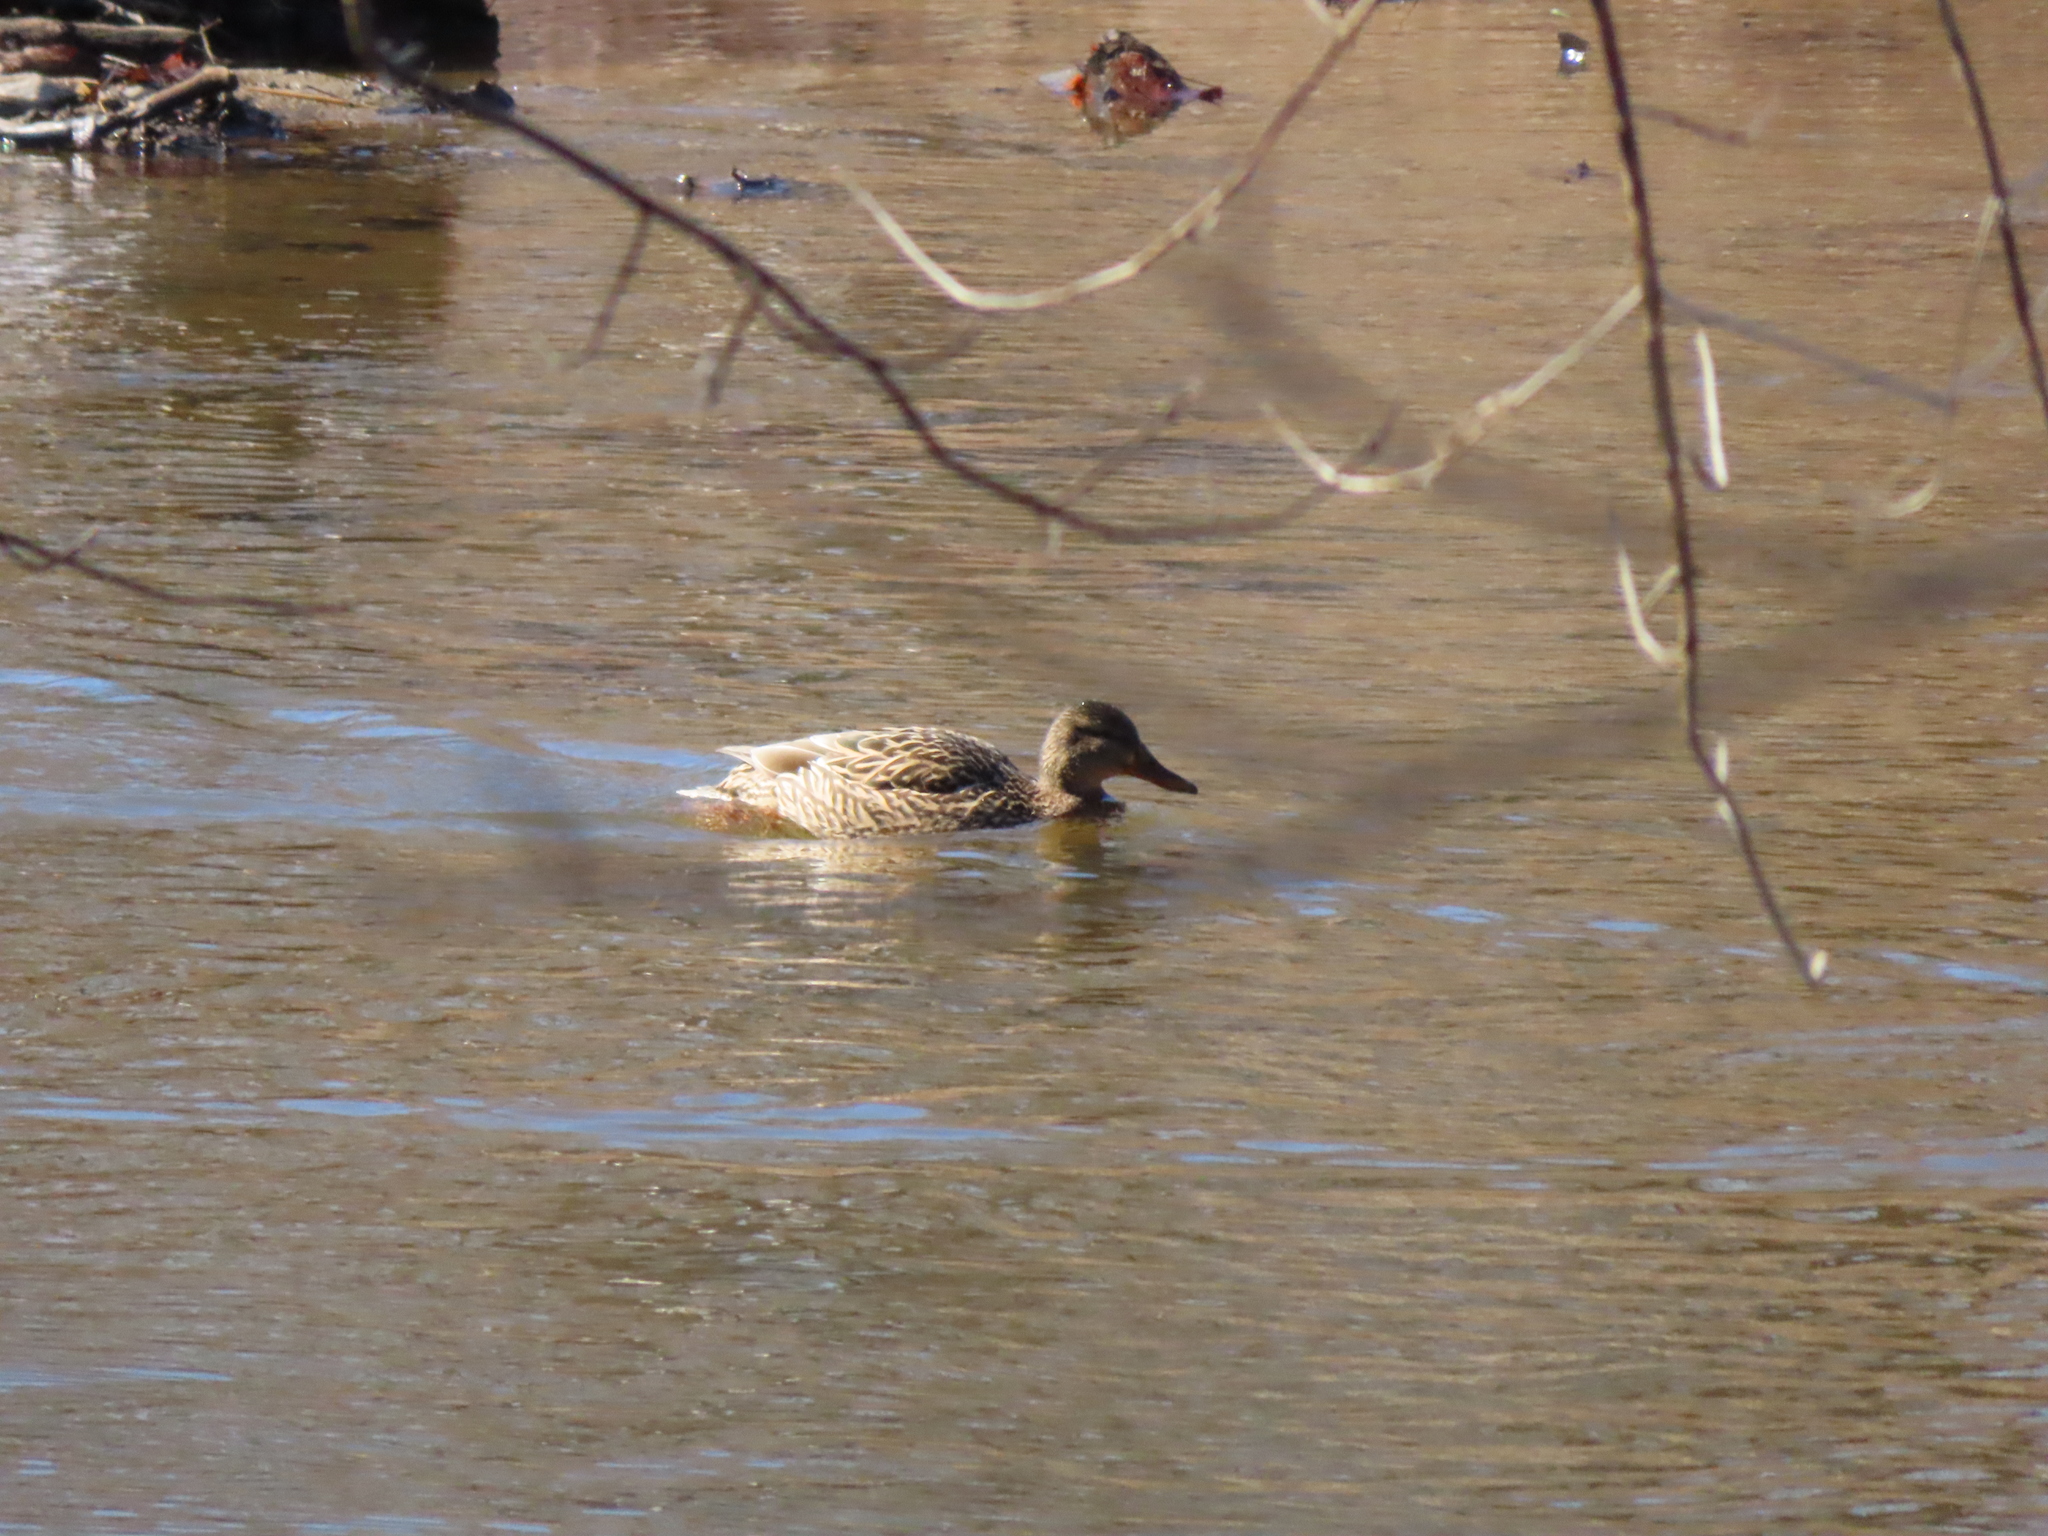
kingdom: Animalia
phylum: Chordata
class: Aves
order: Anseriformes
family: Anatidae
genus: Anas
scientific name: Anas platyrhynchos
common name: Mallard
